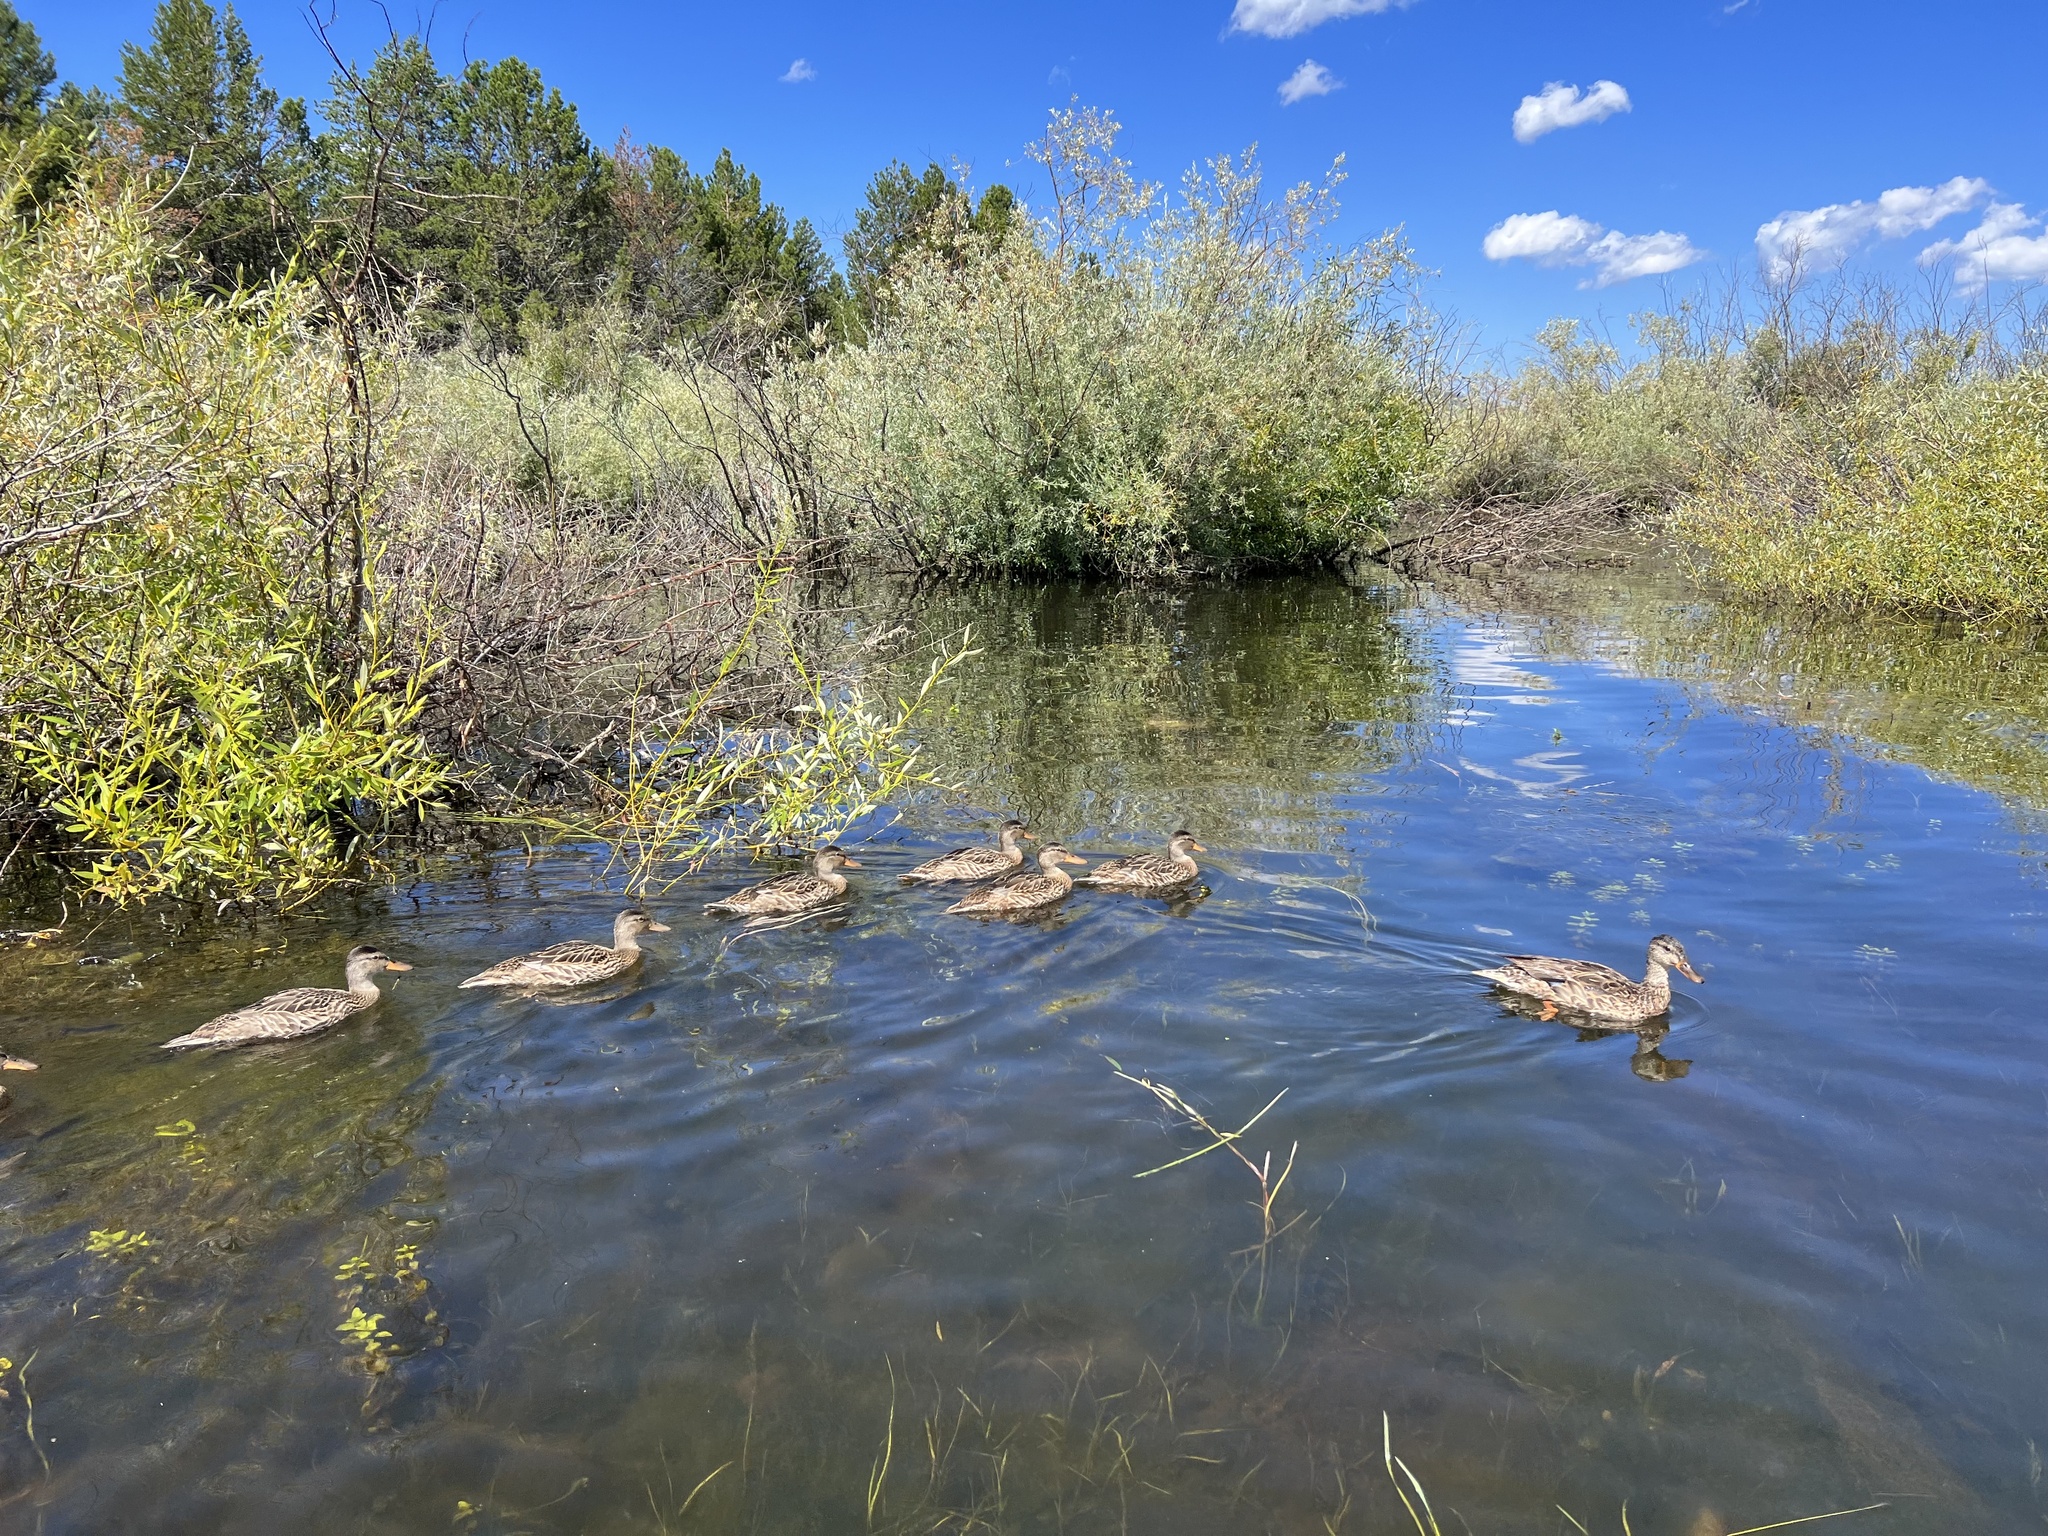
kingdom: Animalia
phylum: Chordata
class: Aves
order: Anseriformes
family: Anatidae
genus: Anas
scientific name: Anas platyrhynchos
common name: Mallard
